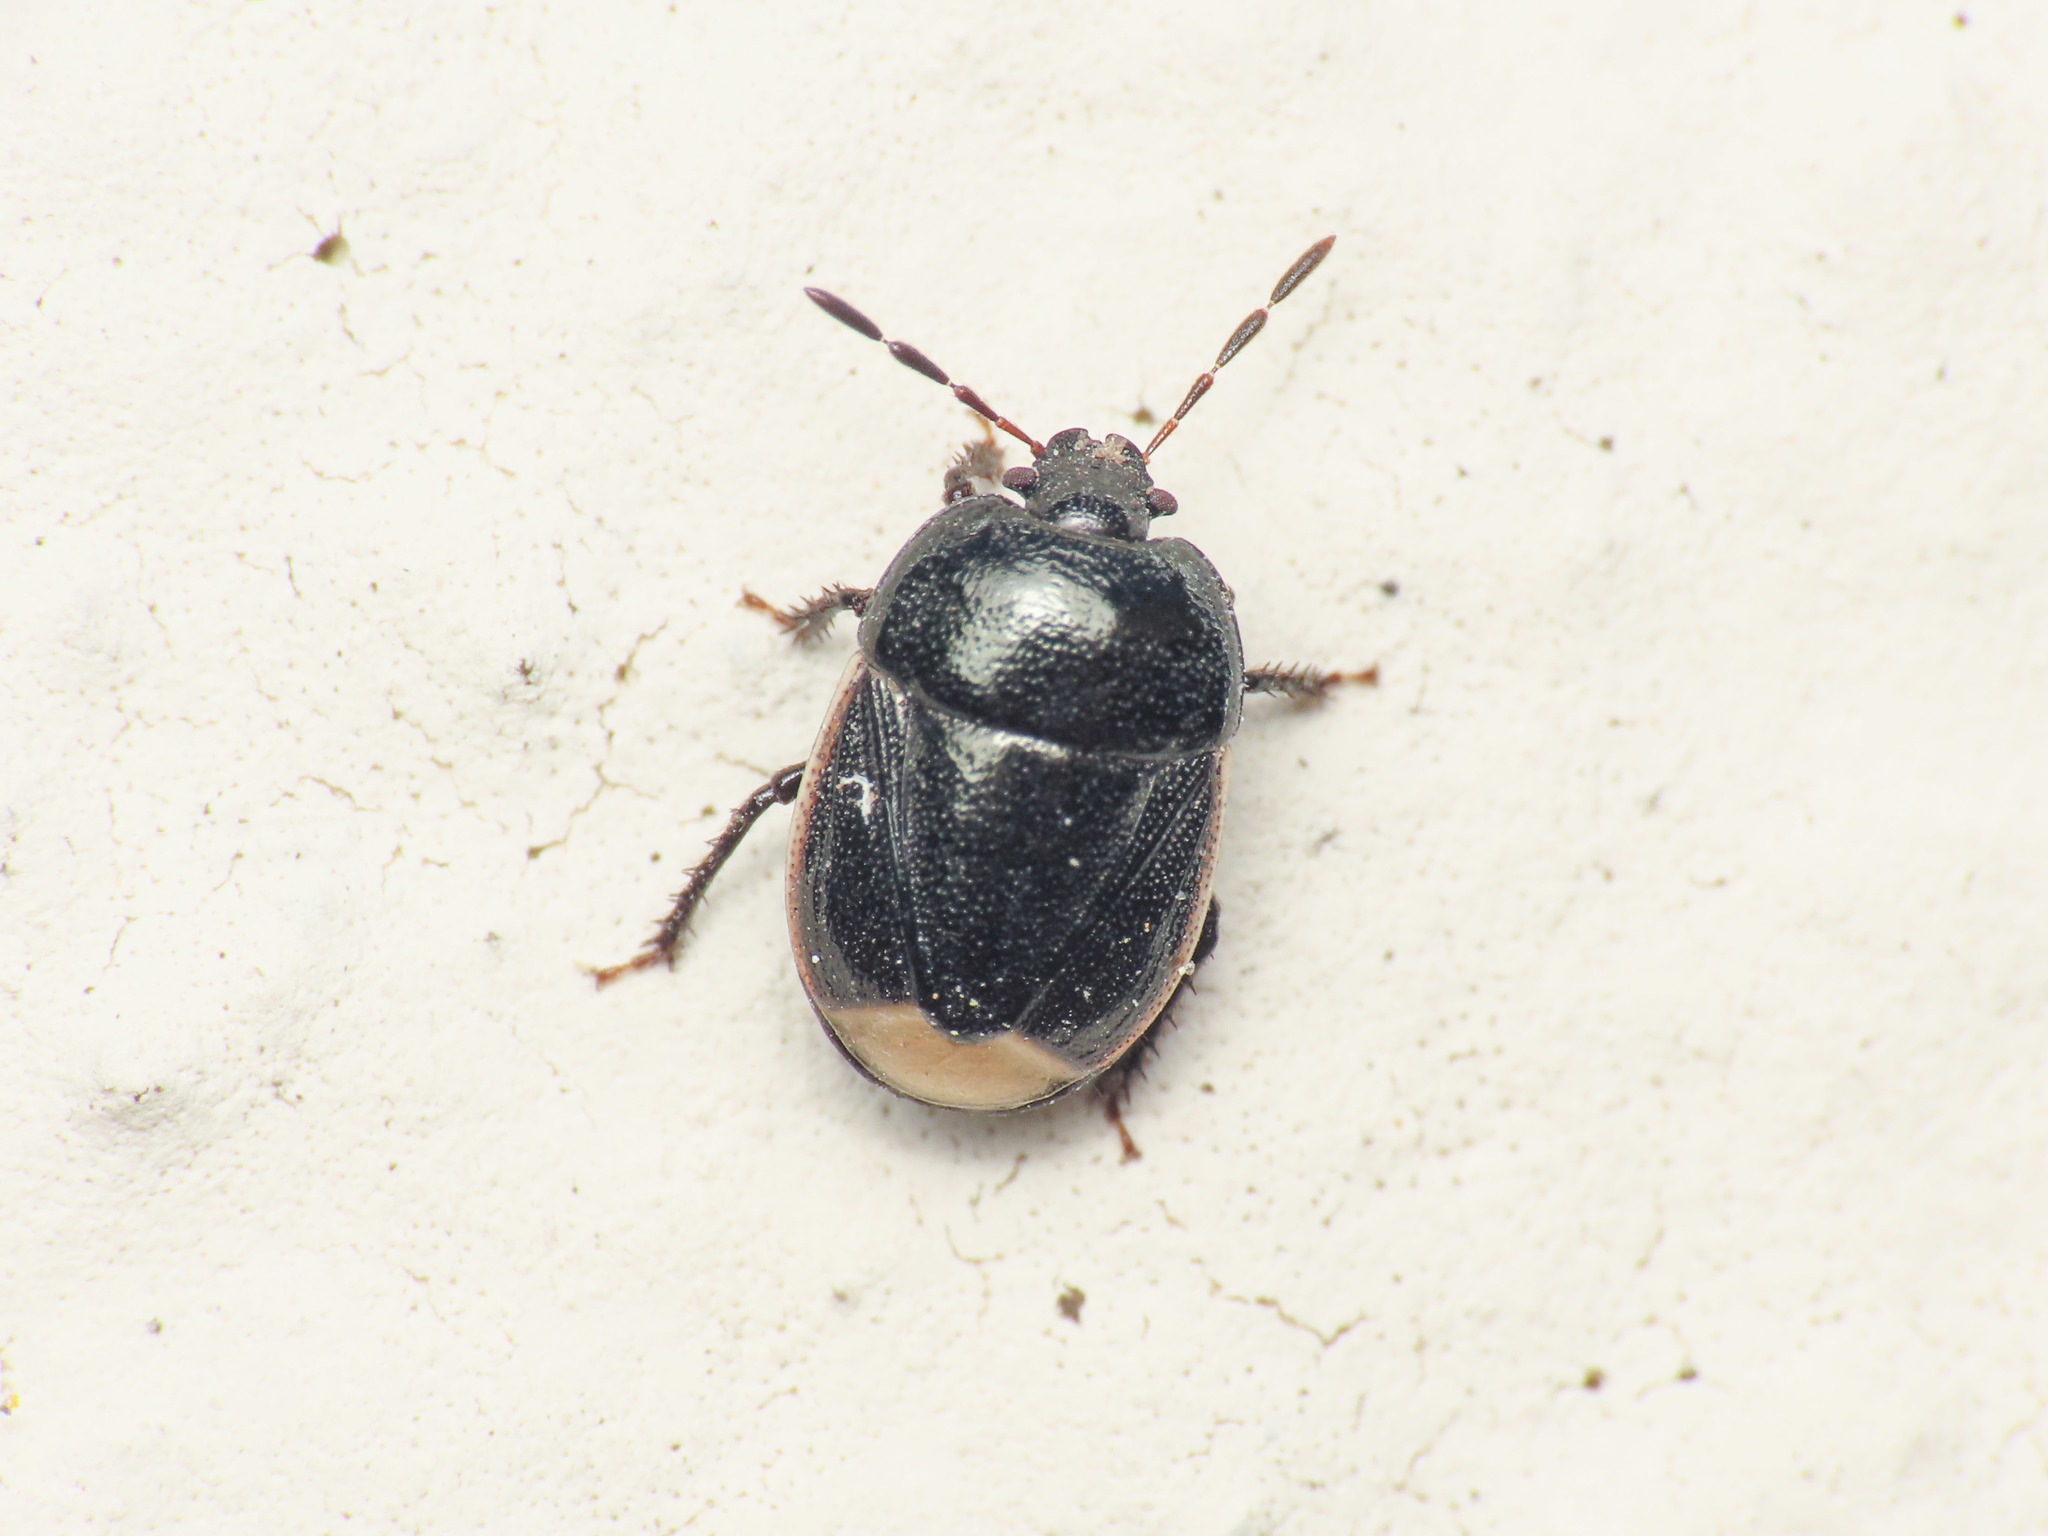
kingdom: Animalia
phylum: Arthropoda
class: Insecta
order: Hemiptera
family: Cydnidae
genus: Legnotus
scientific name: Legnotus limbosus
